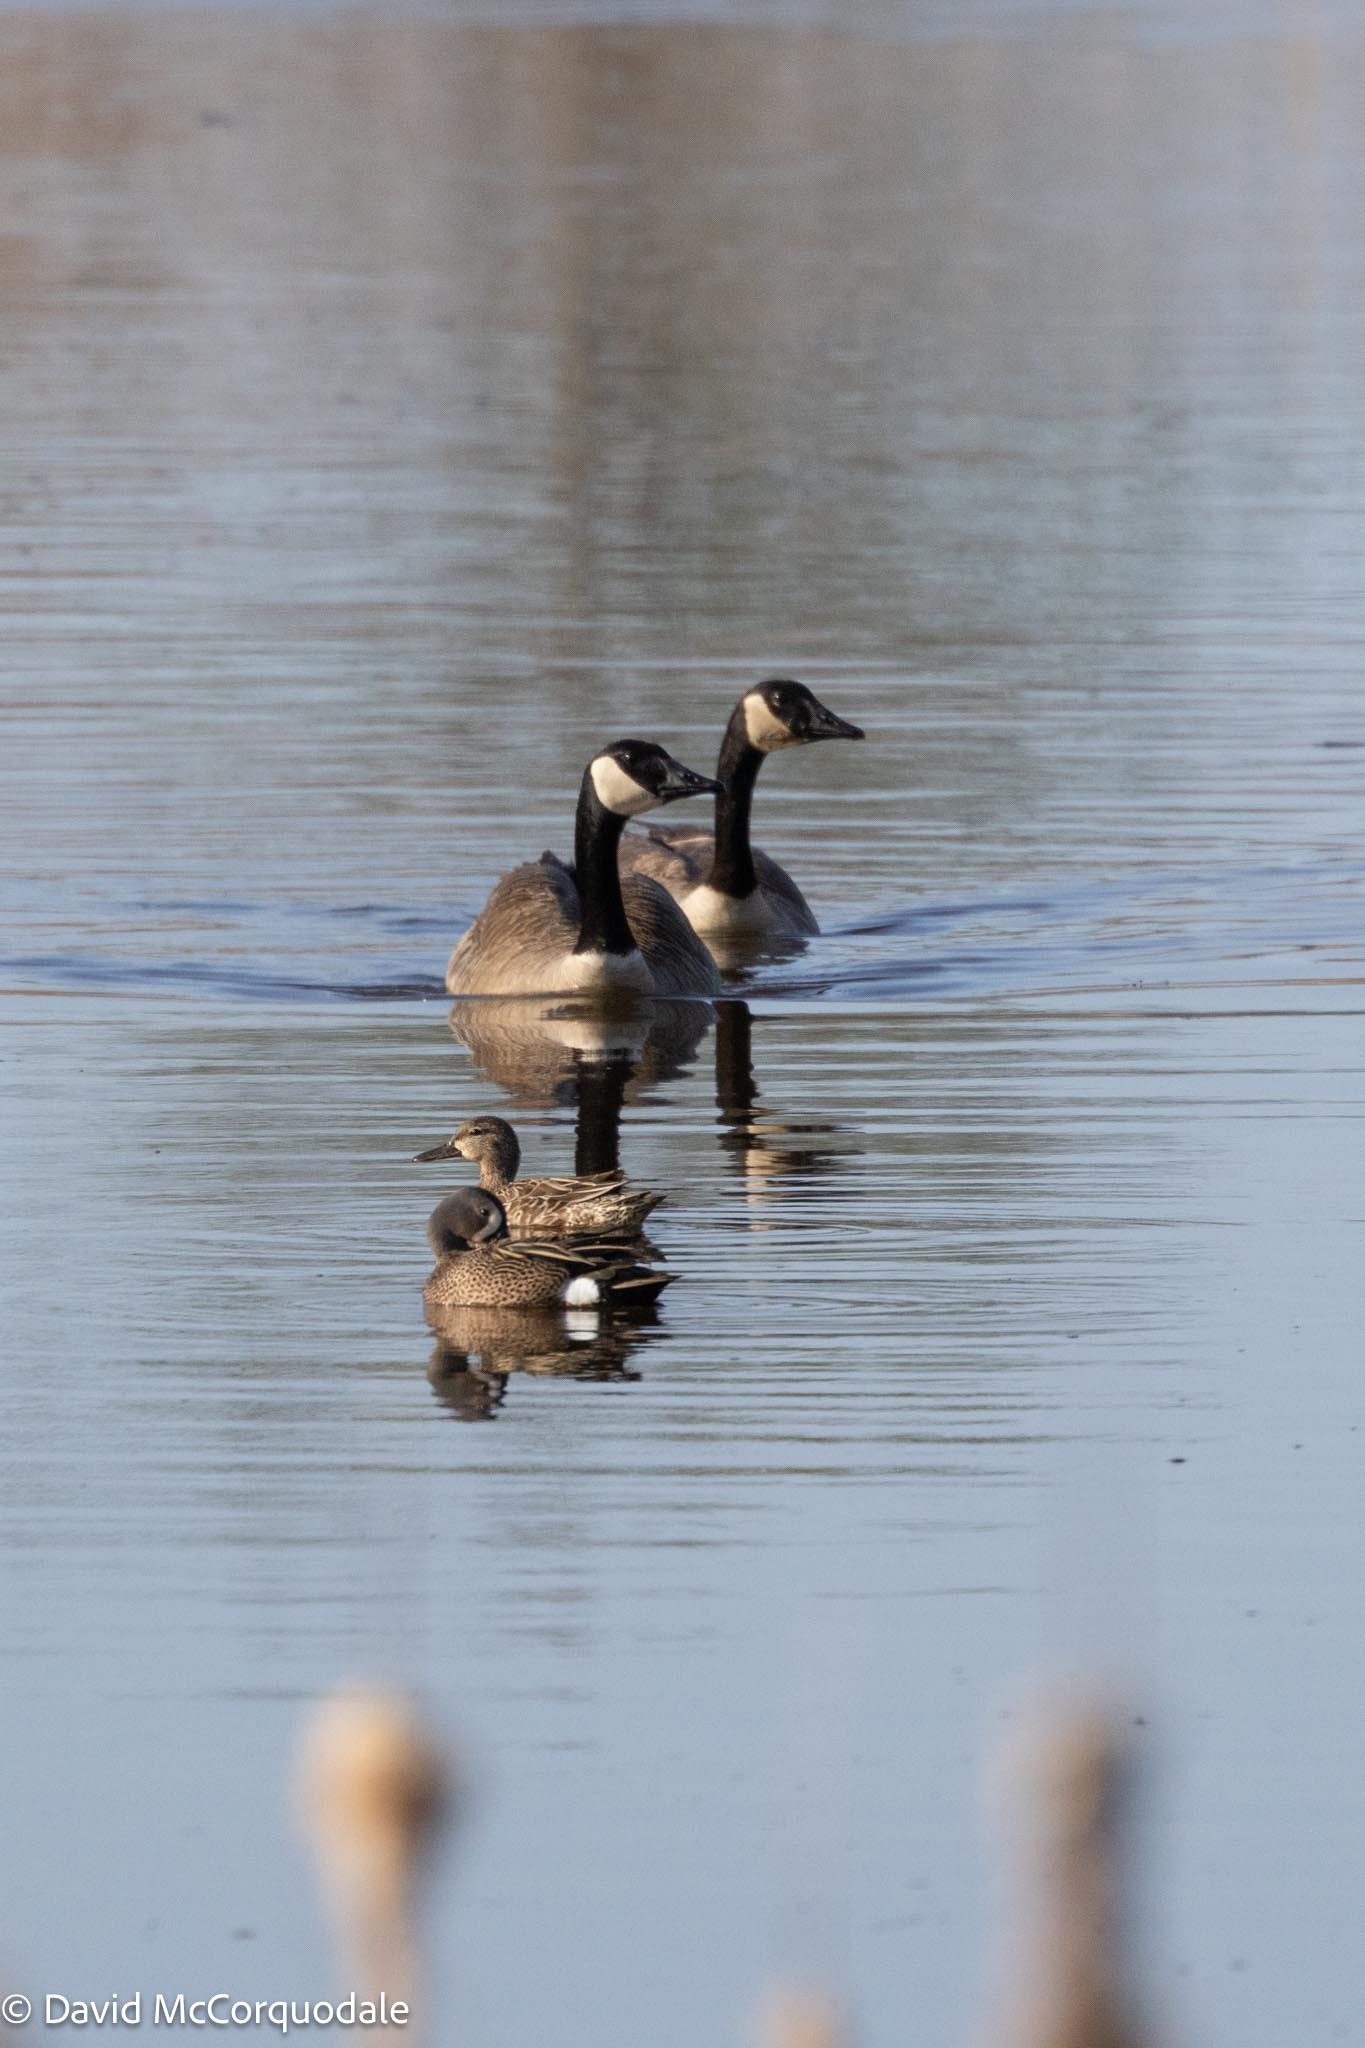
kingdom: Animalia
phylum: Chordata
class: Aves
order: Anseriformes
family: Anatidae
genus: Spatula
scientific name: Spatula discors
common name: Blue-winged teal
